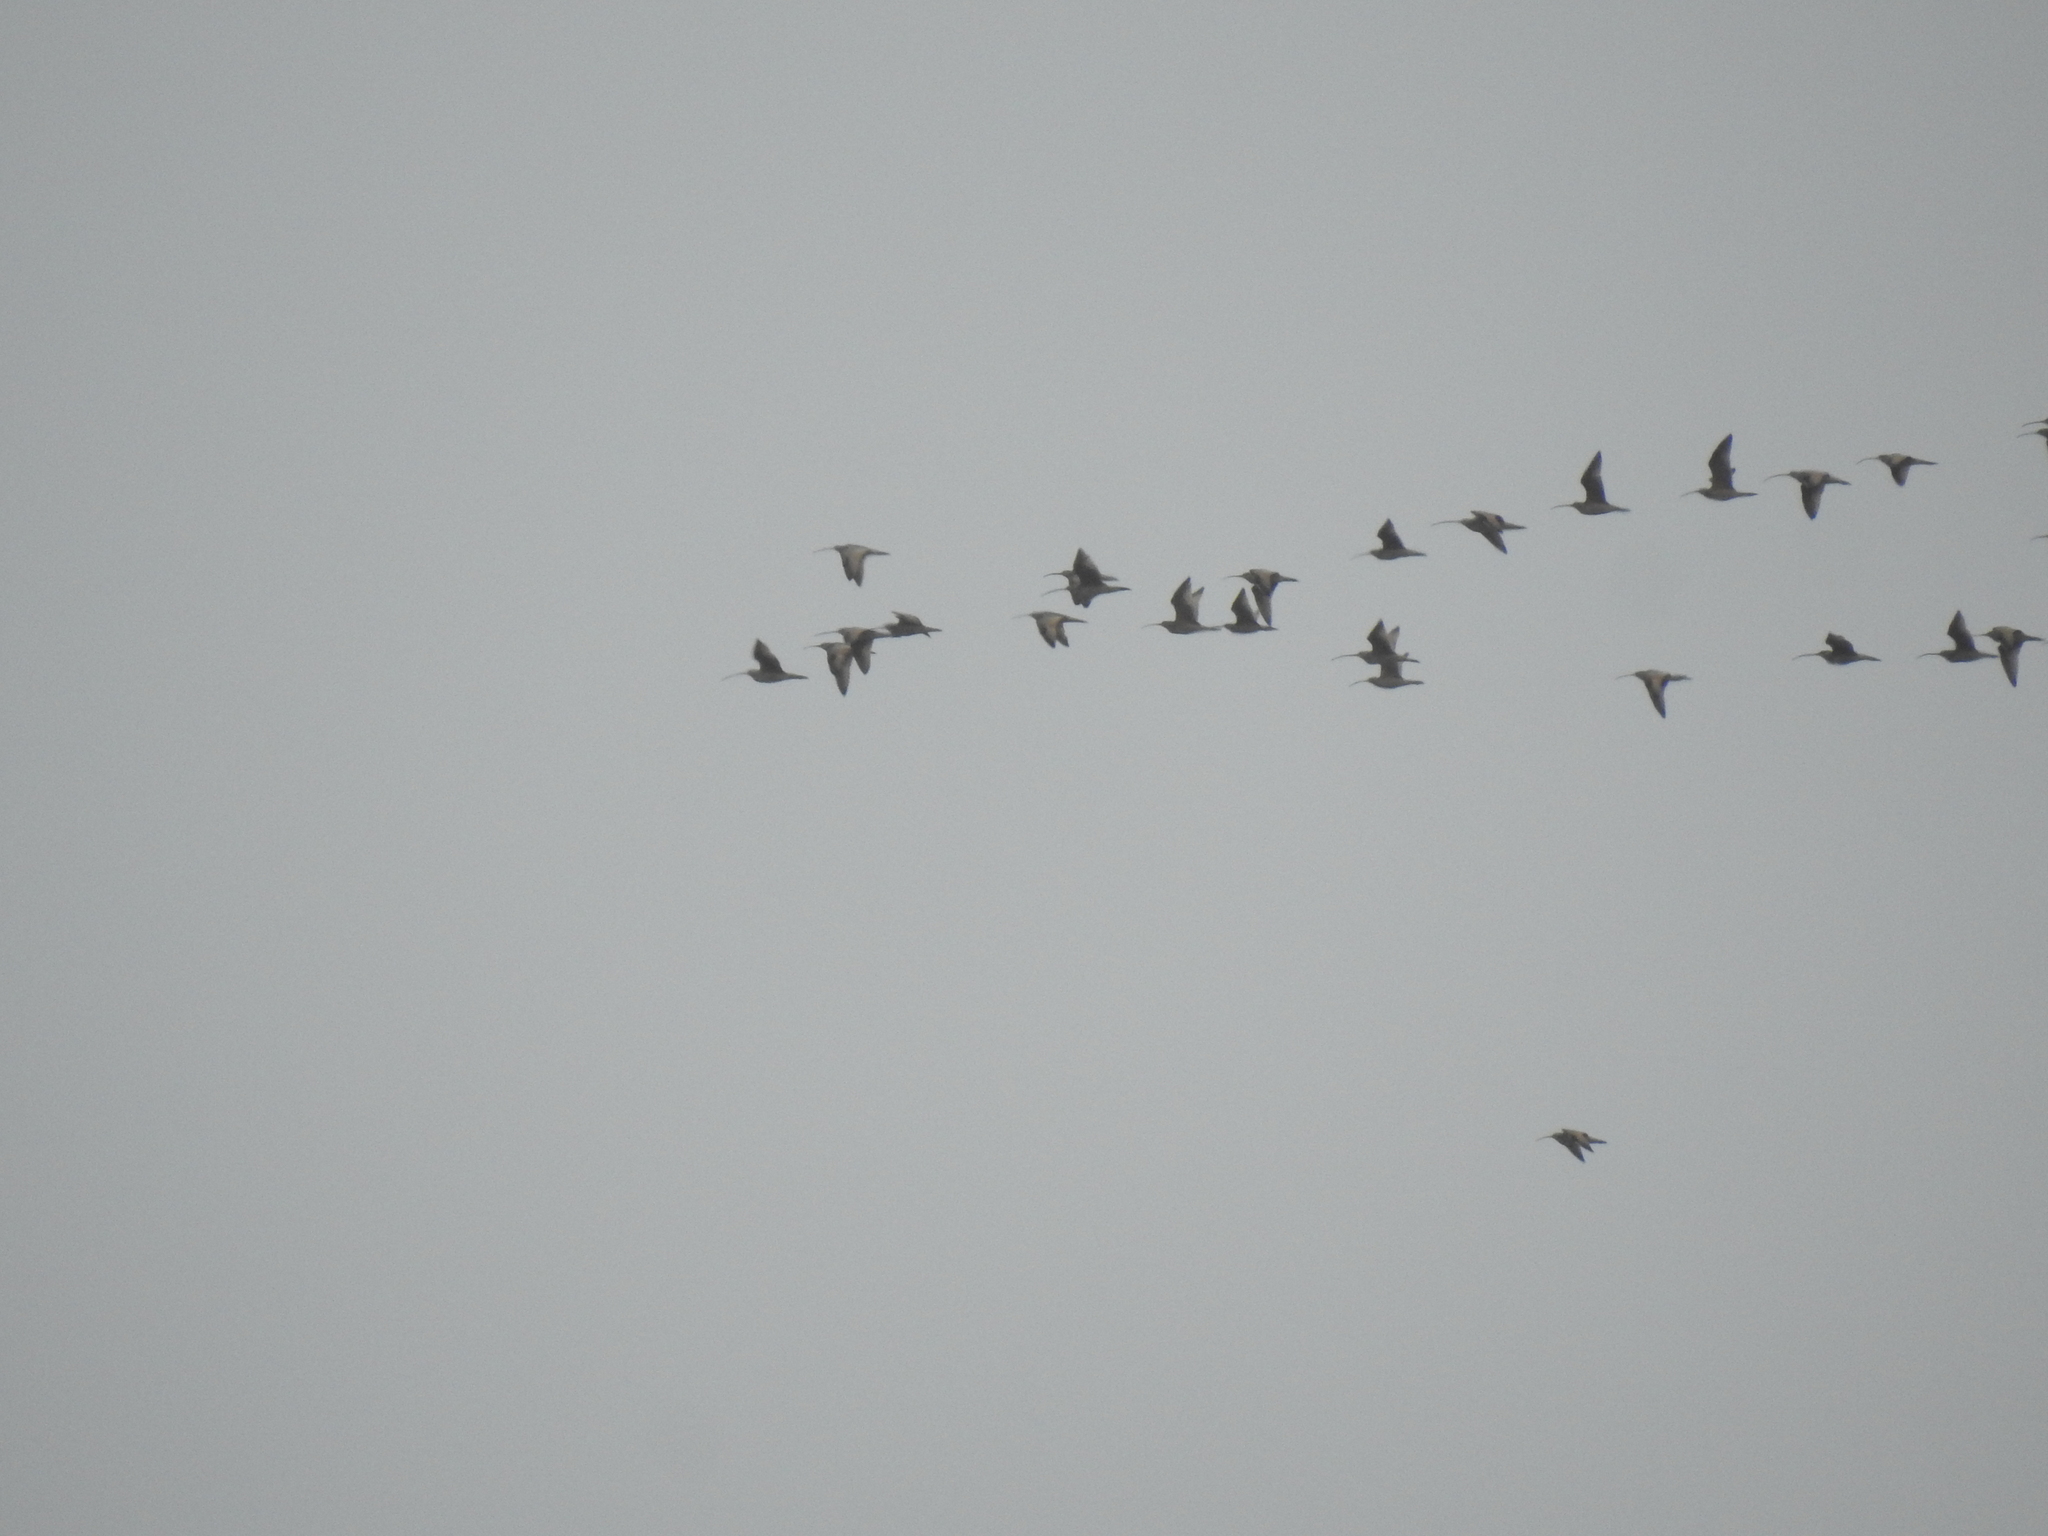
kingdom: Animalia
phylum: Chordata
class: Aves
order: Charadriiformes
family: Scolopacidae
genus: Numenius
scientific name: Numenius americanus
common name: Long-billed curlew
